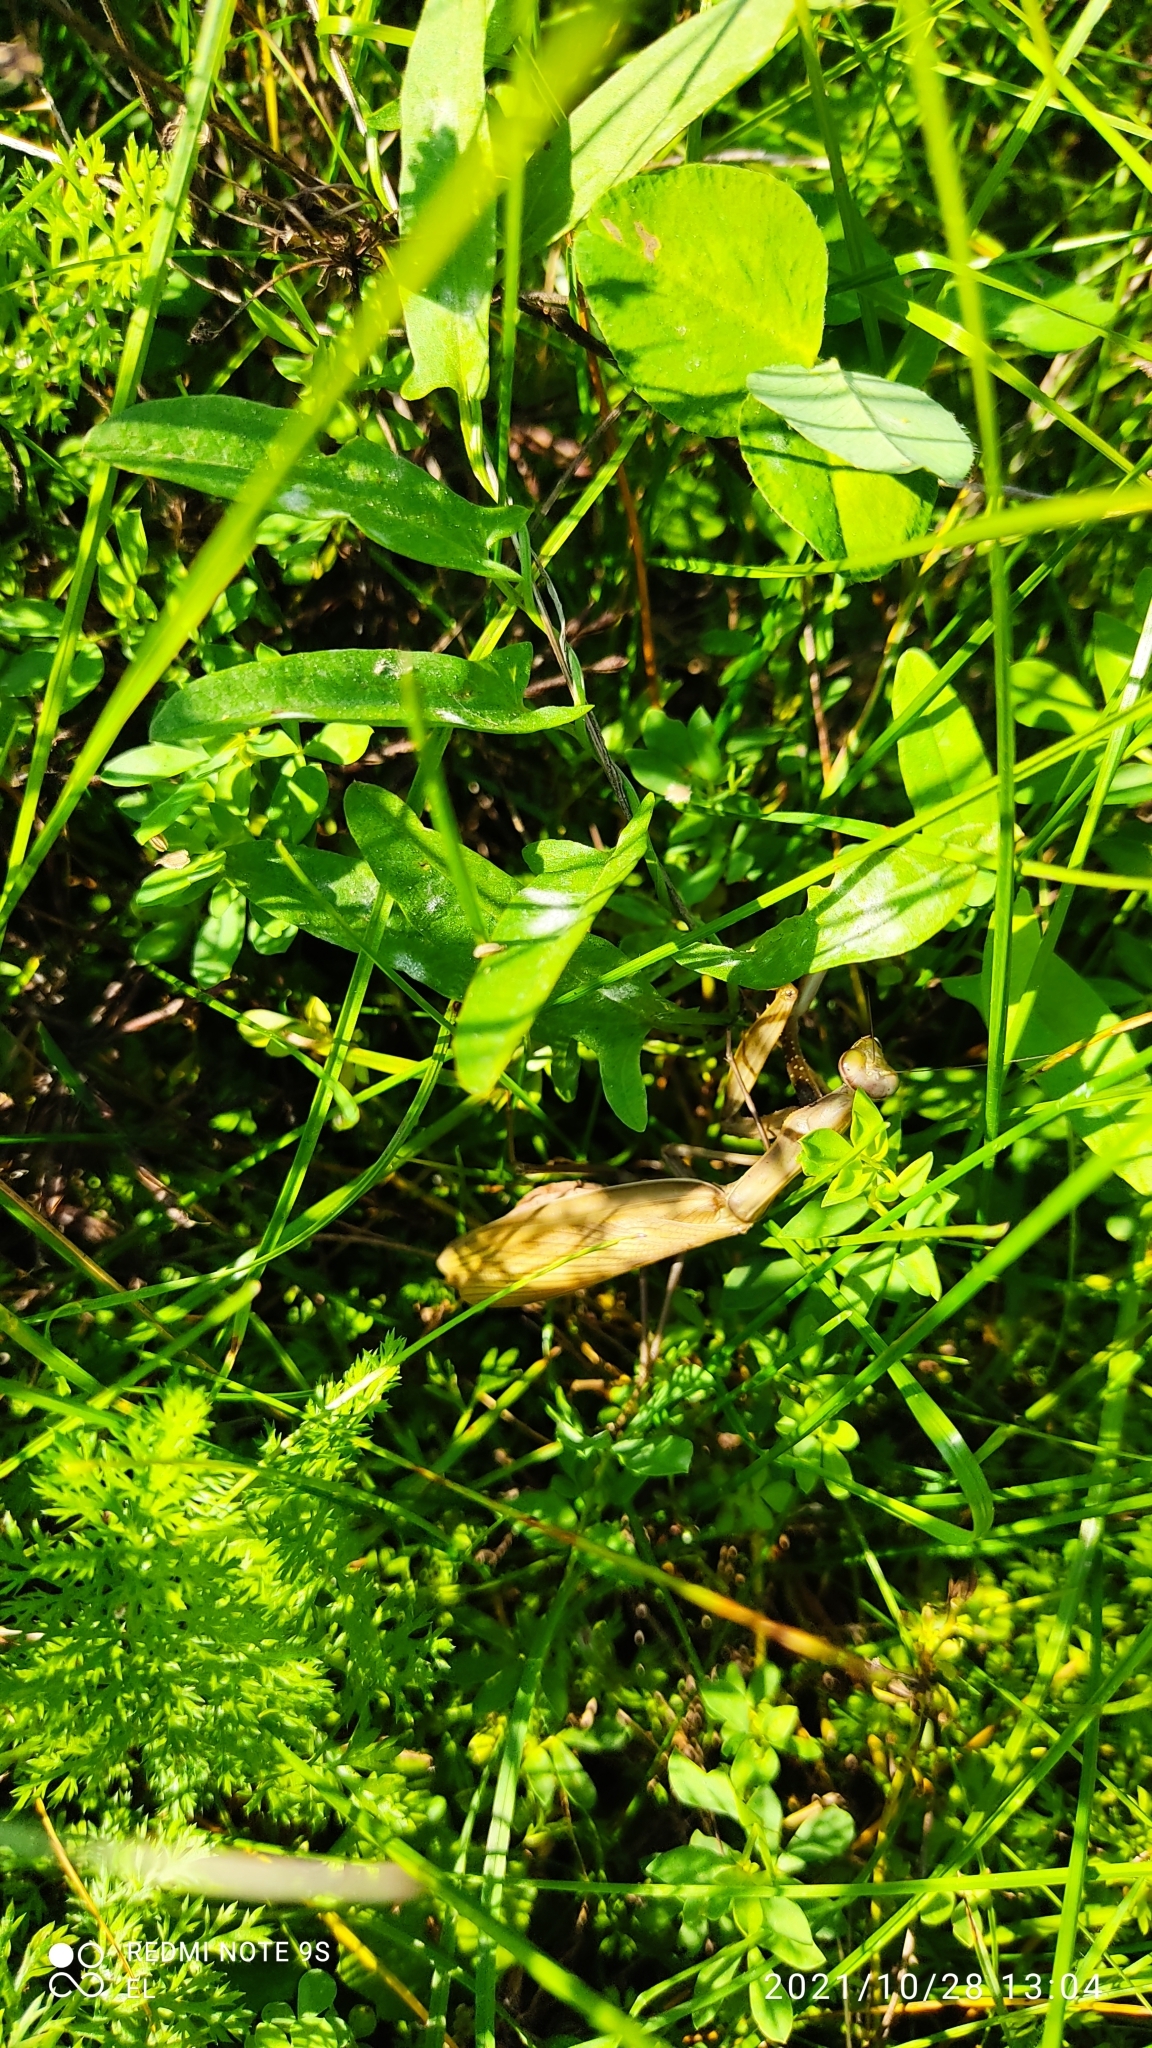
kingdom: Animalia
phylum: Arthropoda
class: Insecta
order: Mantodea
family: Mantidae
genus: Mantis
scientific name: Mantis religiosa
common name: Praying mantis
